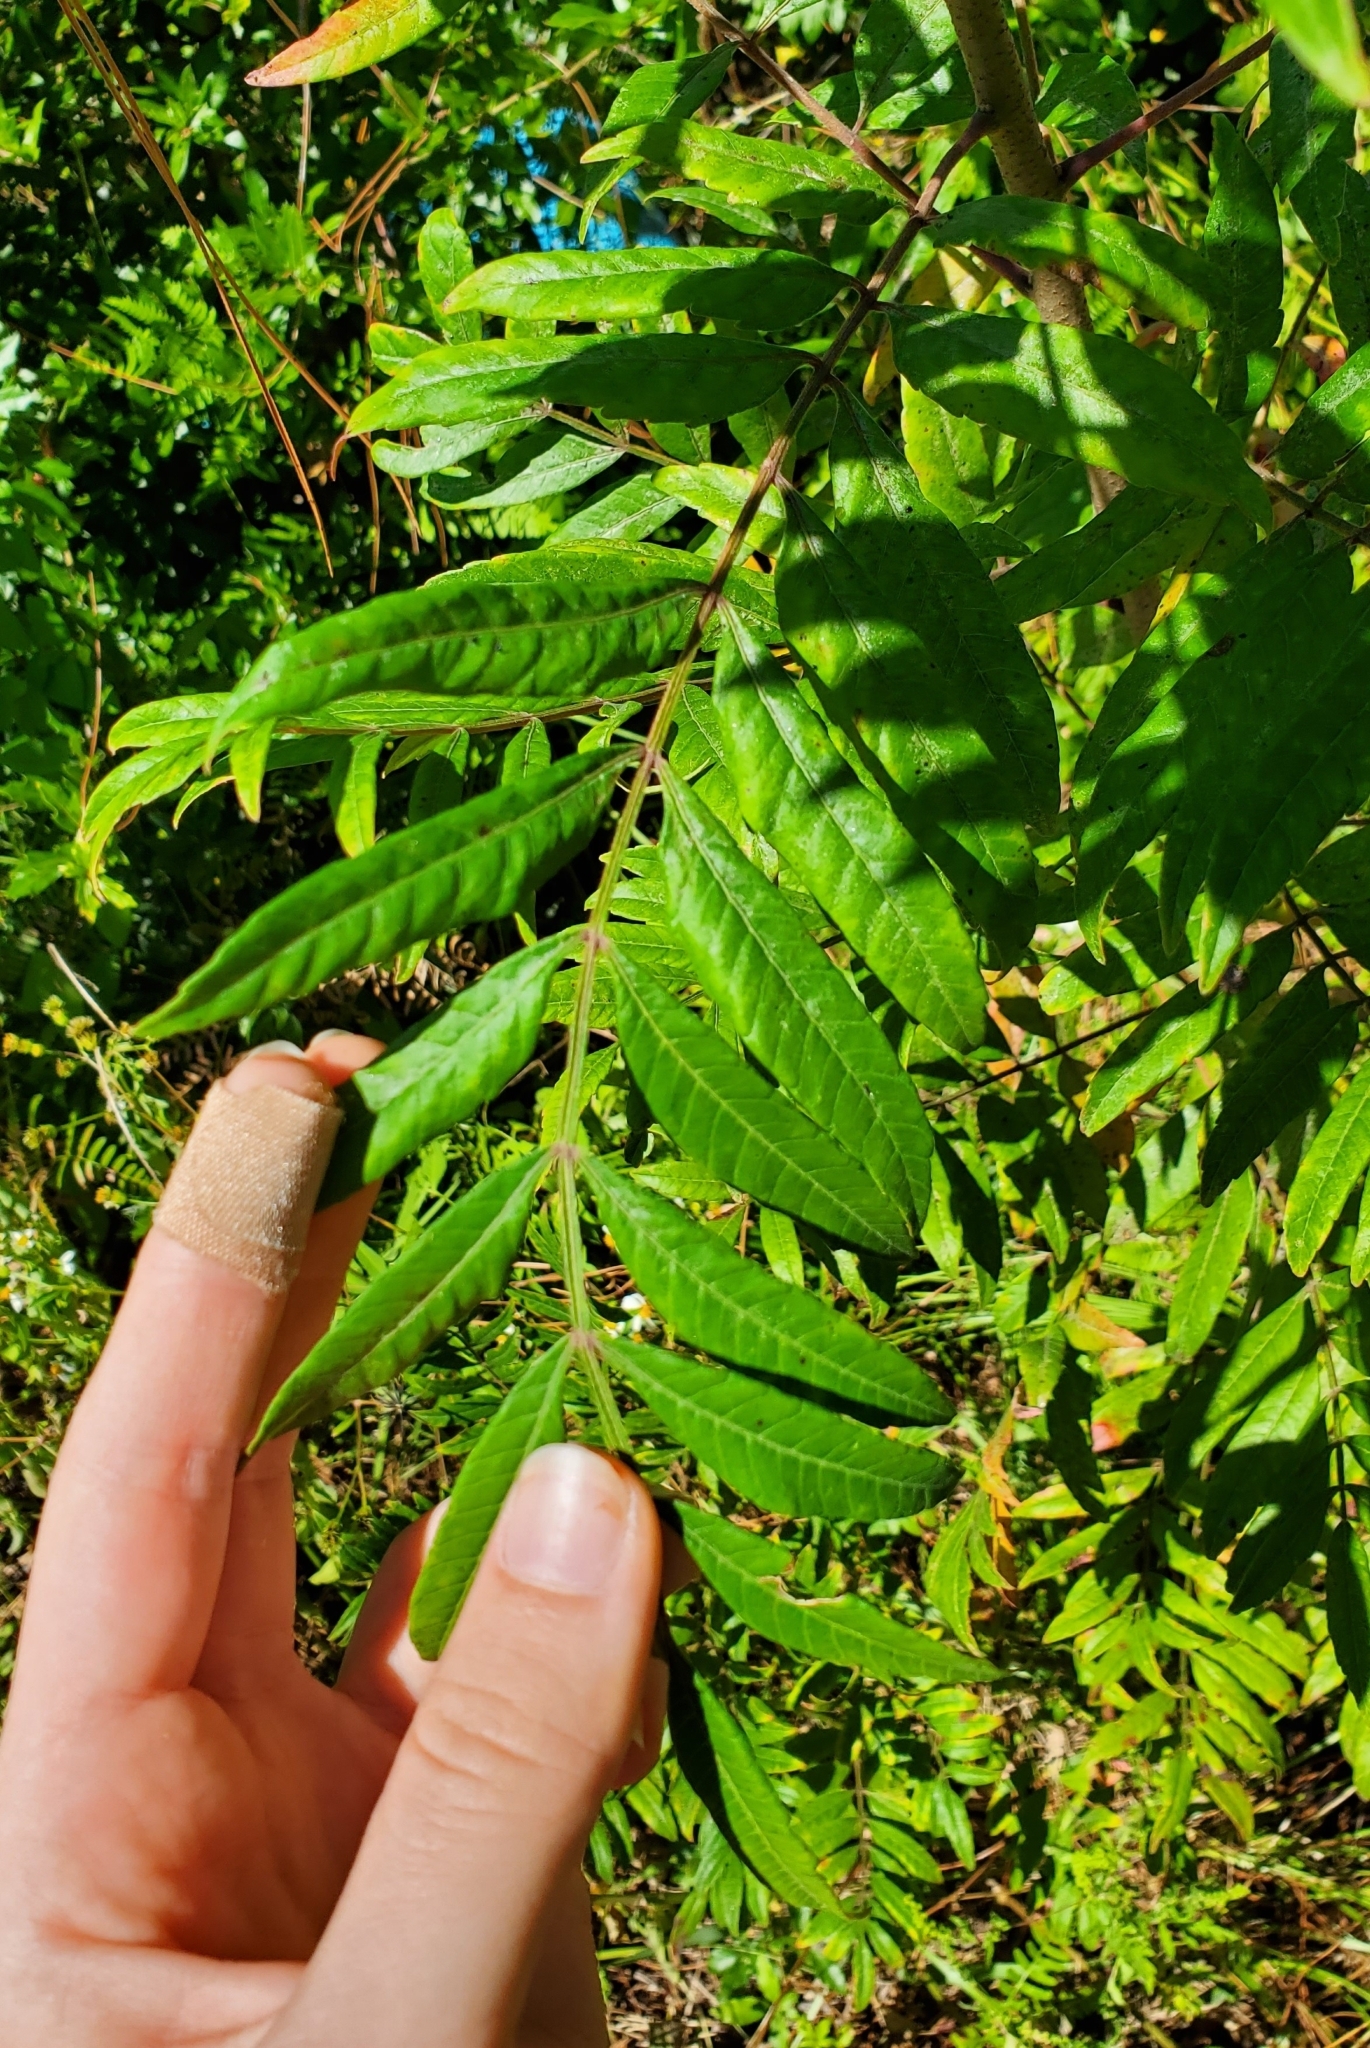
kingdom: Plantae
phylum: Tracheophyta
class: Magnoliopsida
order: Sapindales
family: Anacardiaceae
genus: Rhus
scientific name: Rhus copallina
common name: Shining sumac
